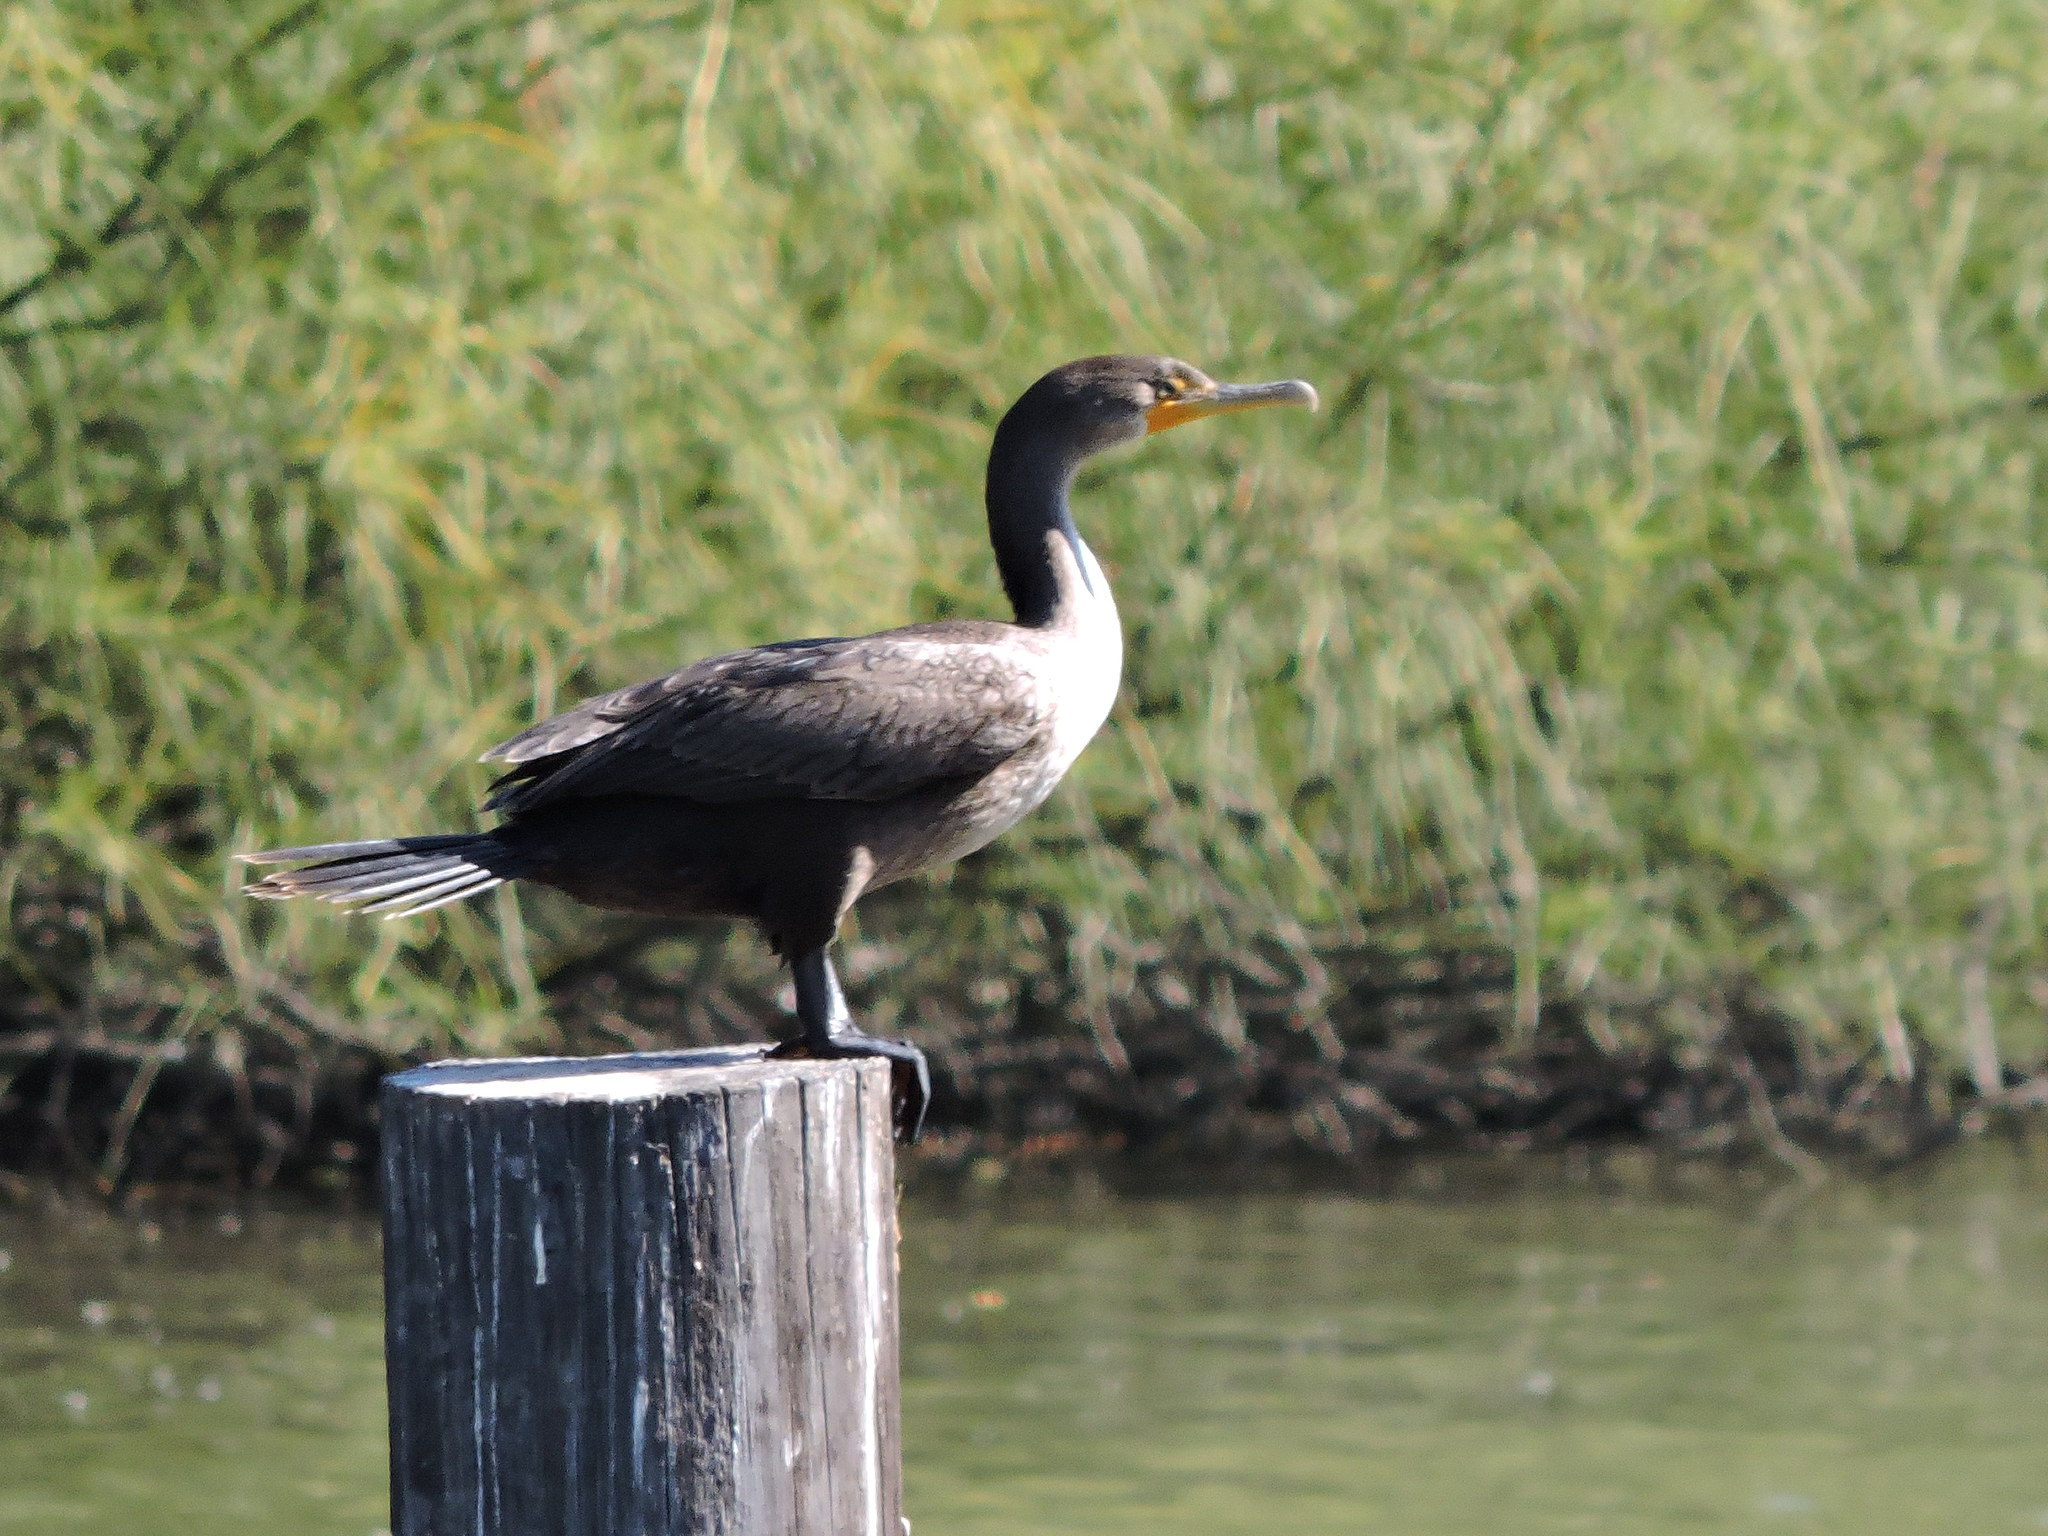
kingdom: Animalia
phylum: Chordata
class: Aves
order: Suliformes
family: Phalacrocoracidae
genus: Phalacrocorax
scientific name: Phalacrocorax auritus
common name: Double-crested cormorant
